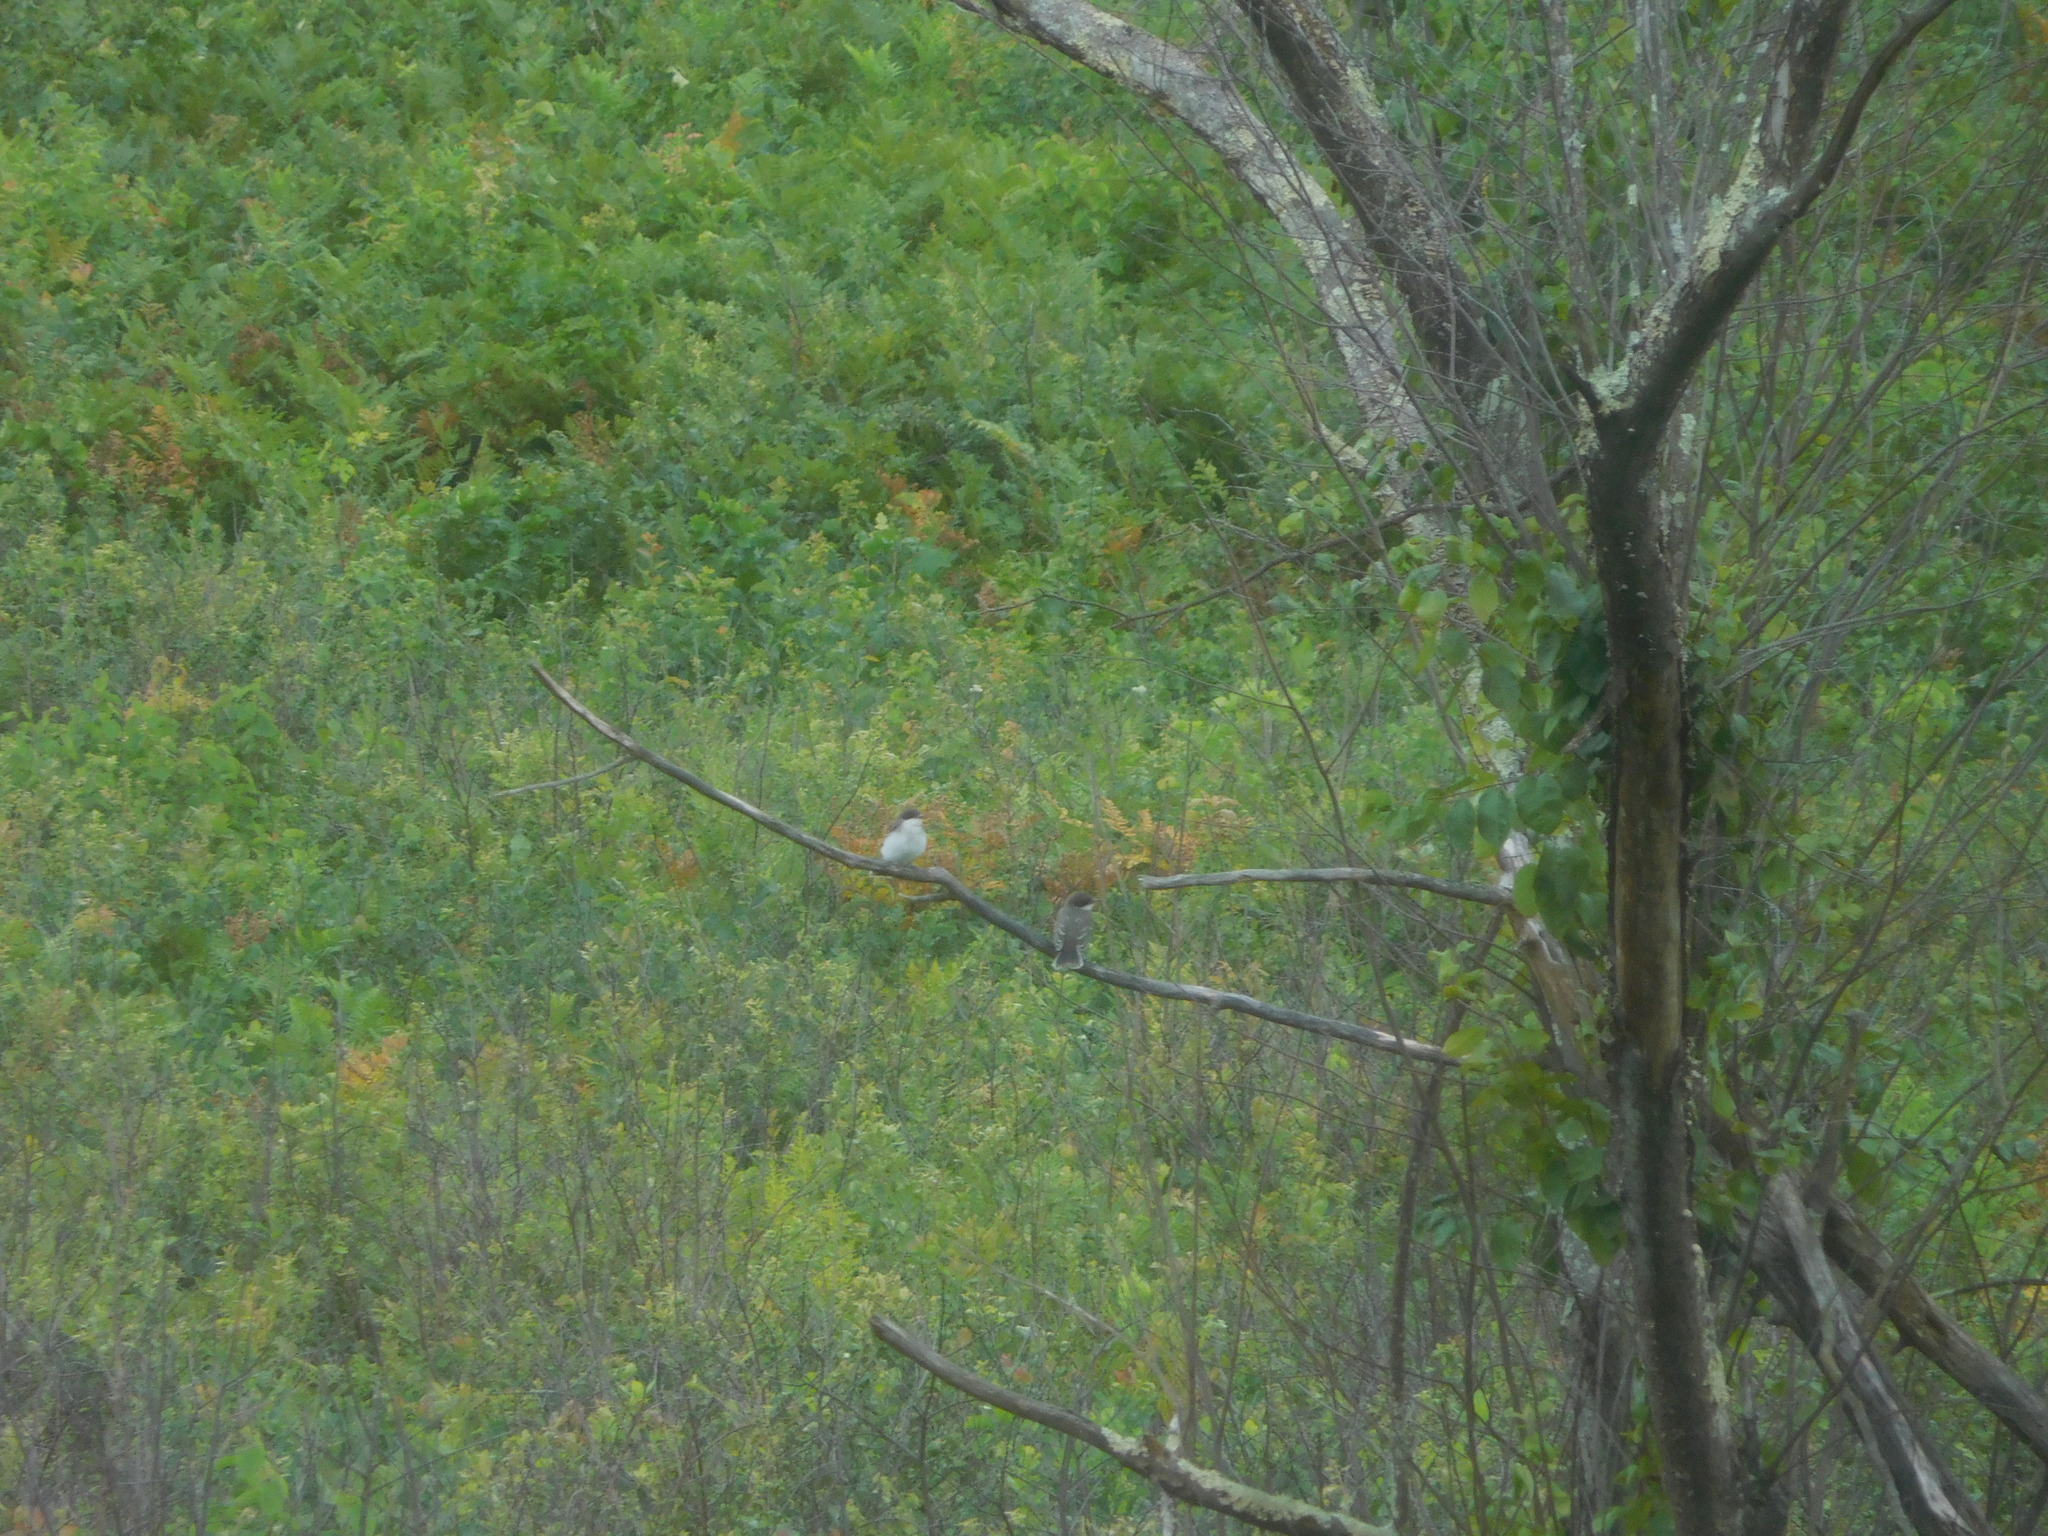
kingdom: Animalia
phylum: Chordata
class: Aves
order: Passeriformes
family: Tyrannidae
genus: Sayornis
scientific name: Sayornis phoebe
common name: Eastern phoebe
